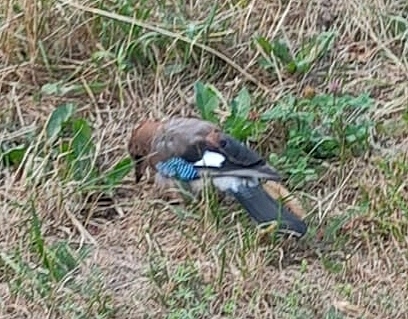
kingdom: Animalia
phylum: Chordata
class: Aves
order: Passeriformes
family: Corvidae
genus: Garrulus
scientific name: Garrulus glandarius
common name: Eurasian jay
